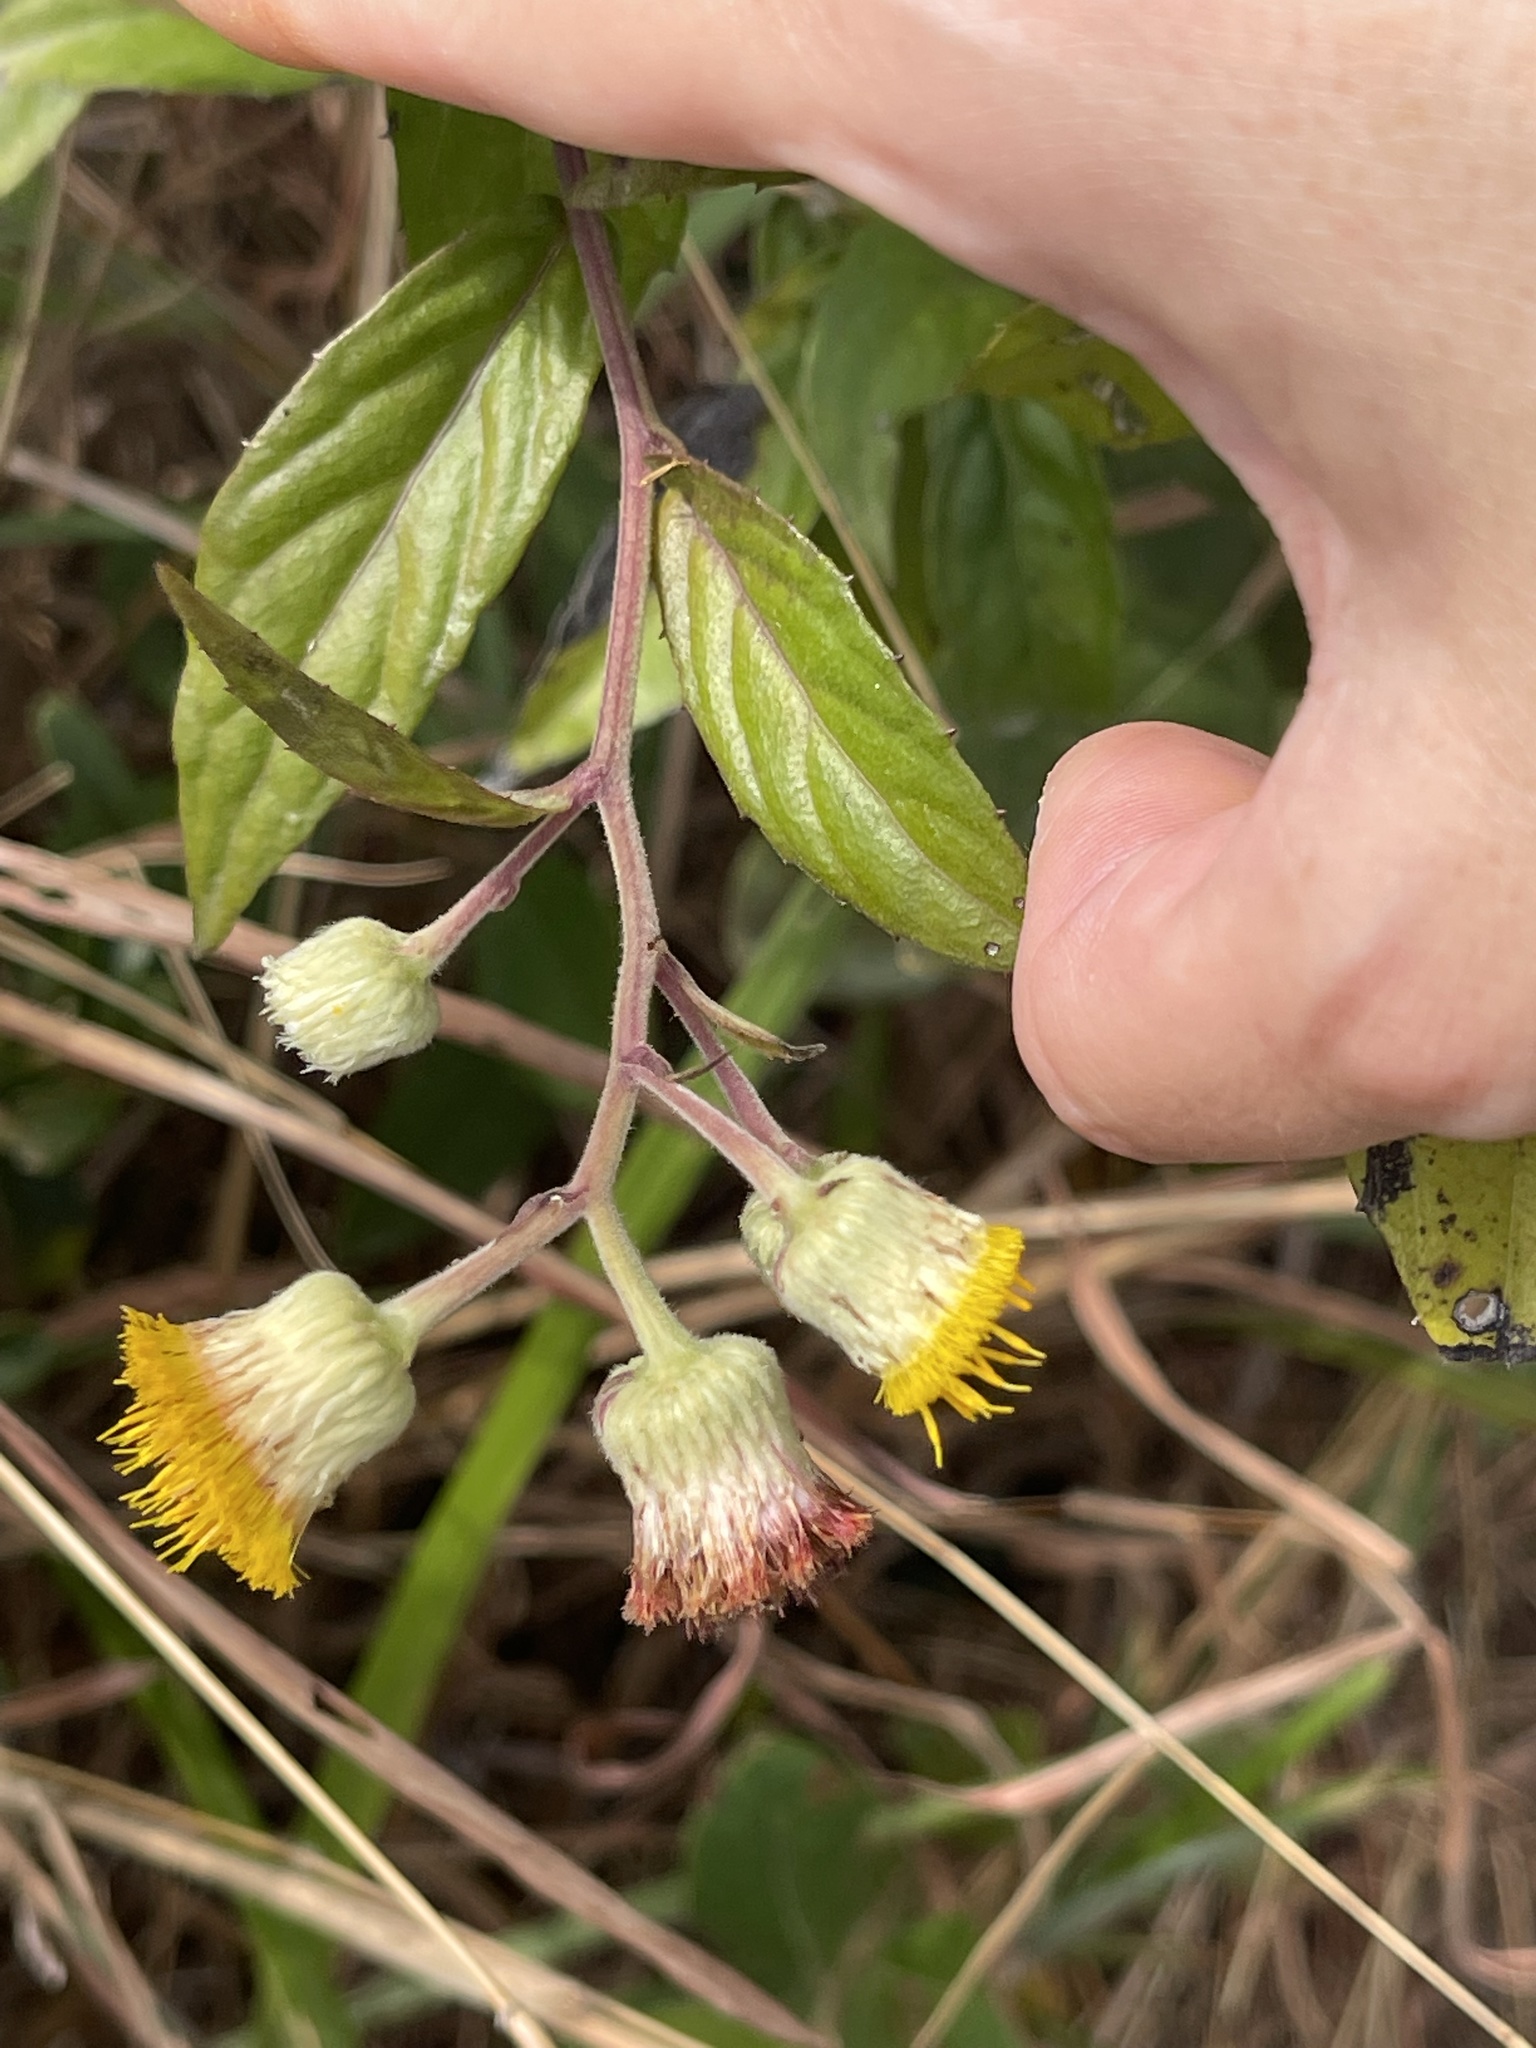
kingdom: Plantae
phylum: Tracheophyta
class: Magnoliopsida
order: Asterales
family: Asteraceae
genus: Blumea
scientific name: Blumea megacephala
